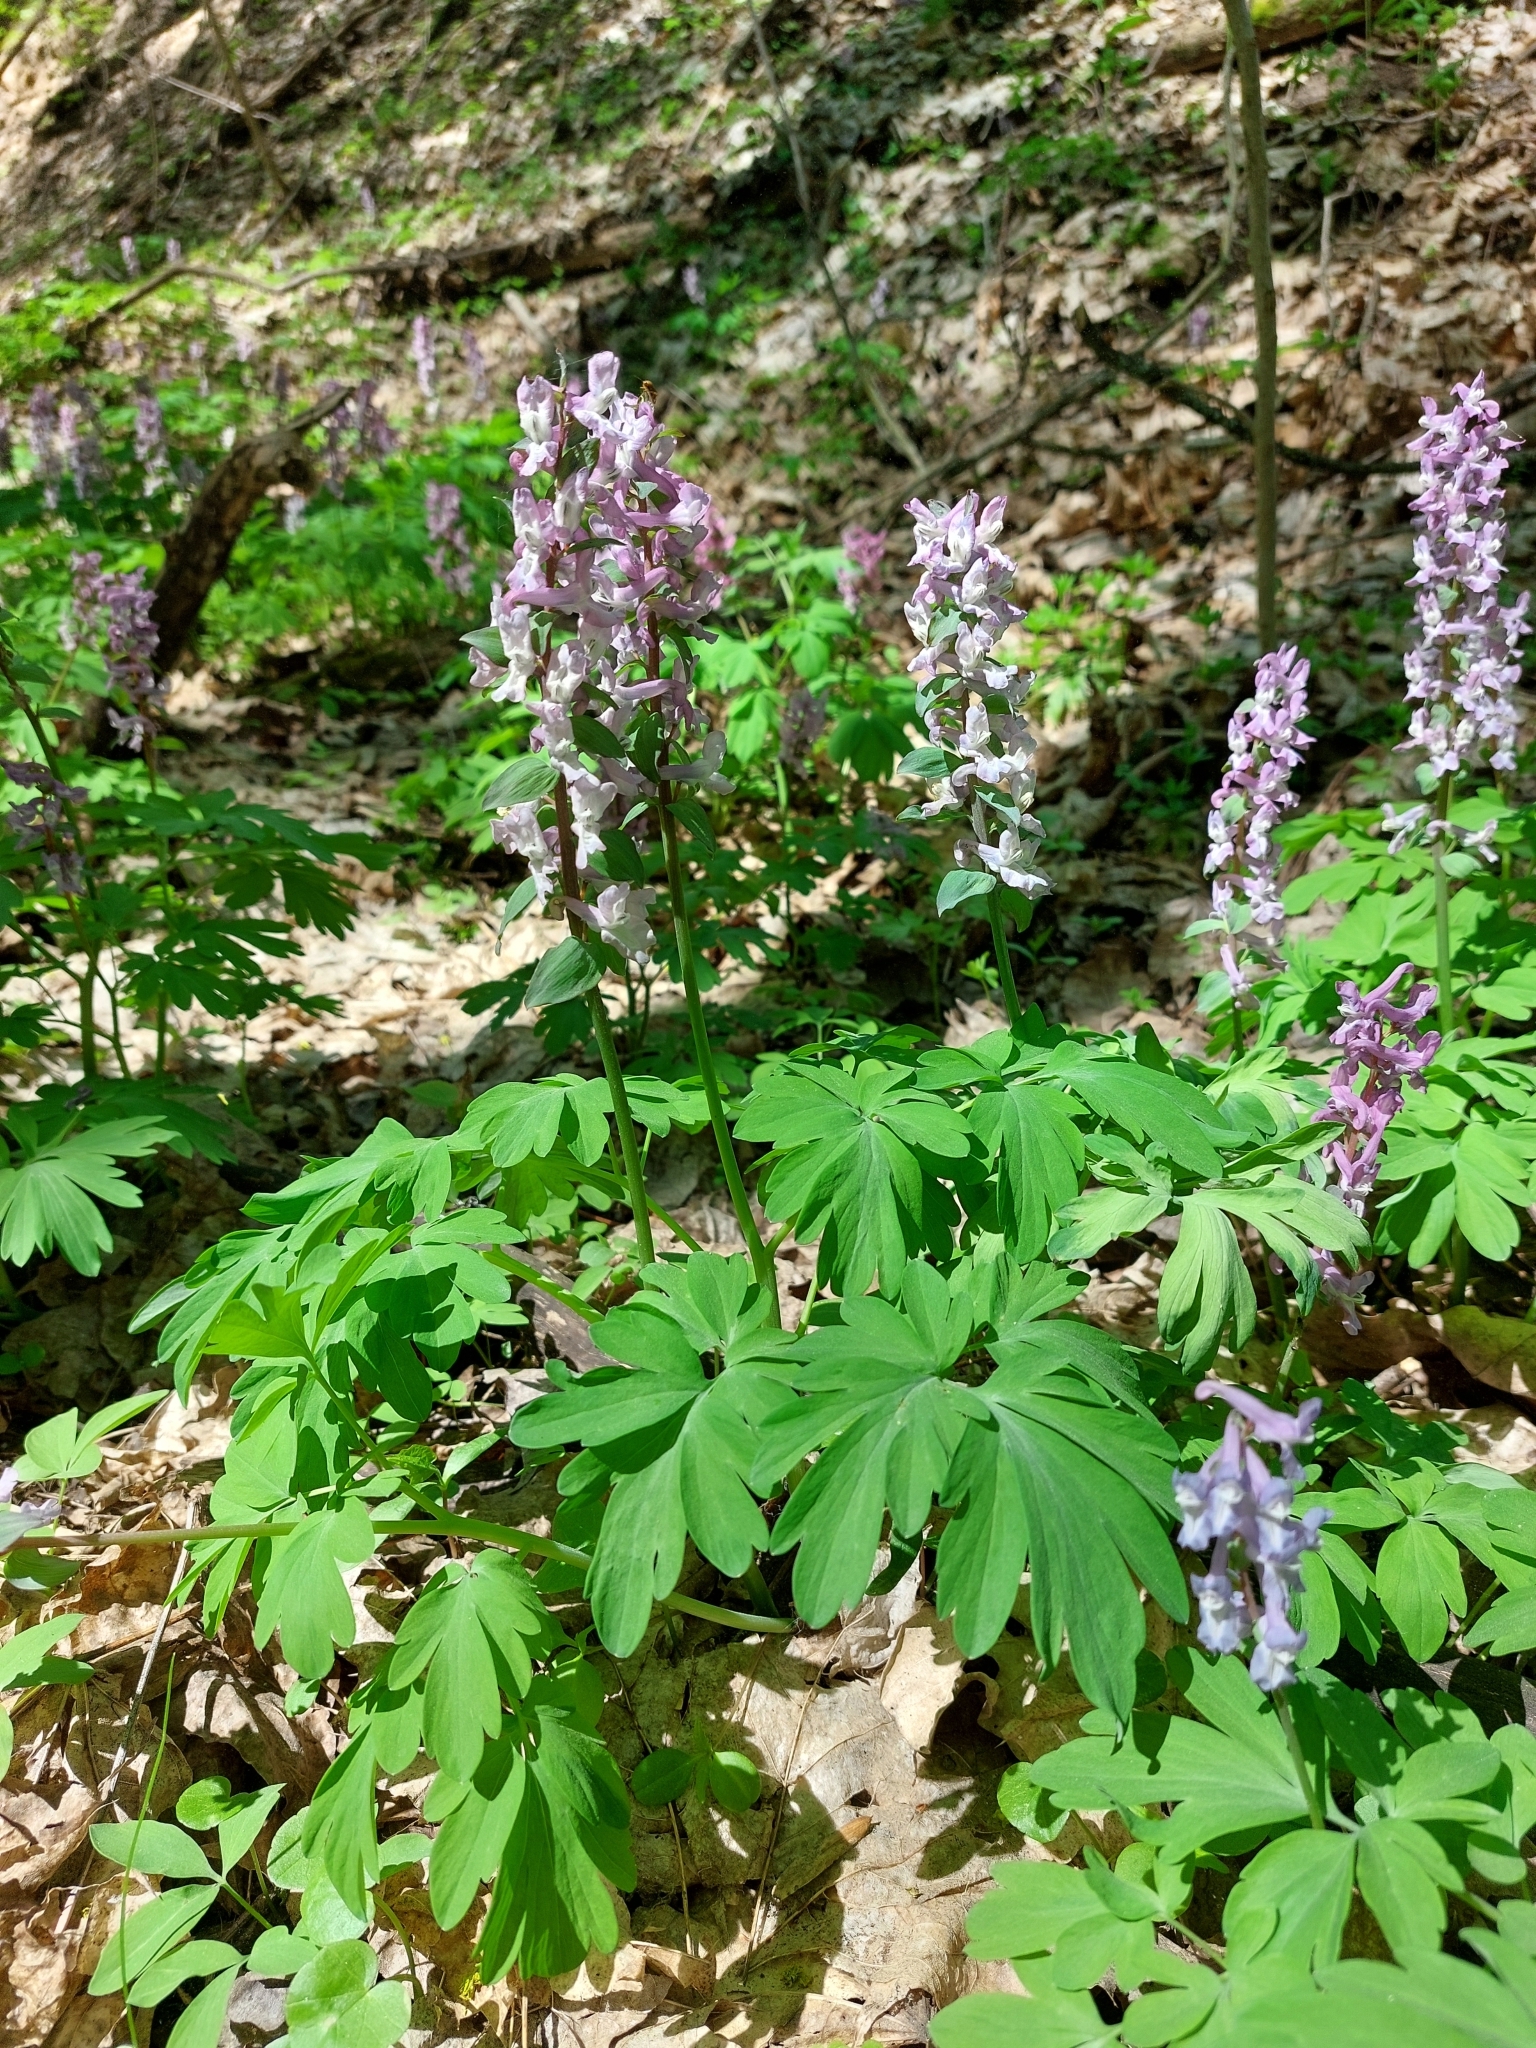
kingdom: Plantae
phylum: Tracheophyta
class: Magnoliopsida
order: Ranunculales
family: Papaveraceae
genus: Corydalis
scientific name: Corydalis cava
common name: Hollowroot
